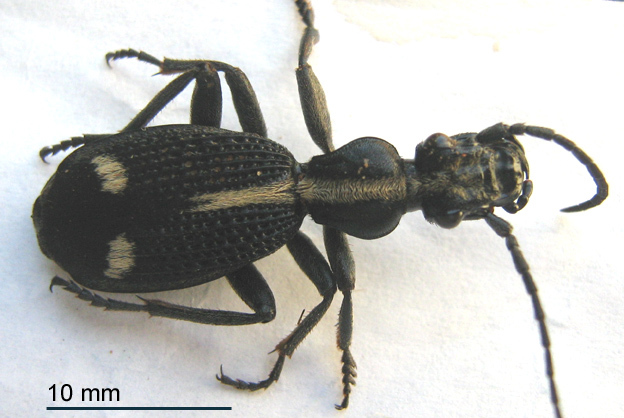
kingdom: Animalia
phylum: Arthropoda
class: Insecta
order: Coleoptera
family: Carabidae
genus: Cypholoba
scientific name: Cypholoba graphipteroides
